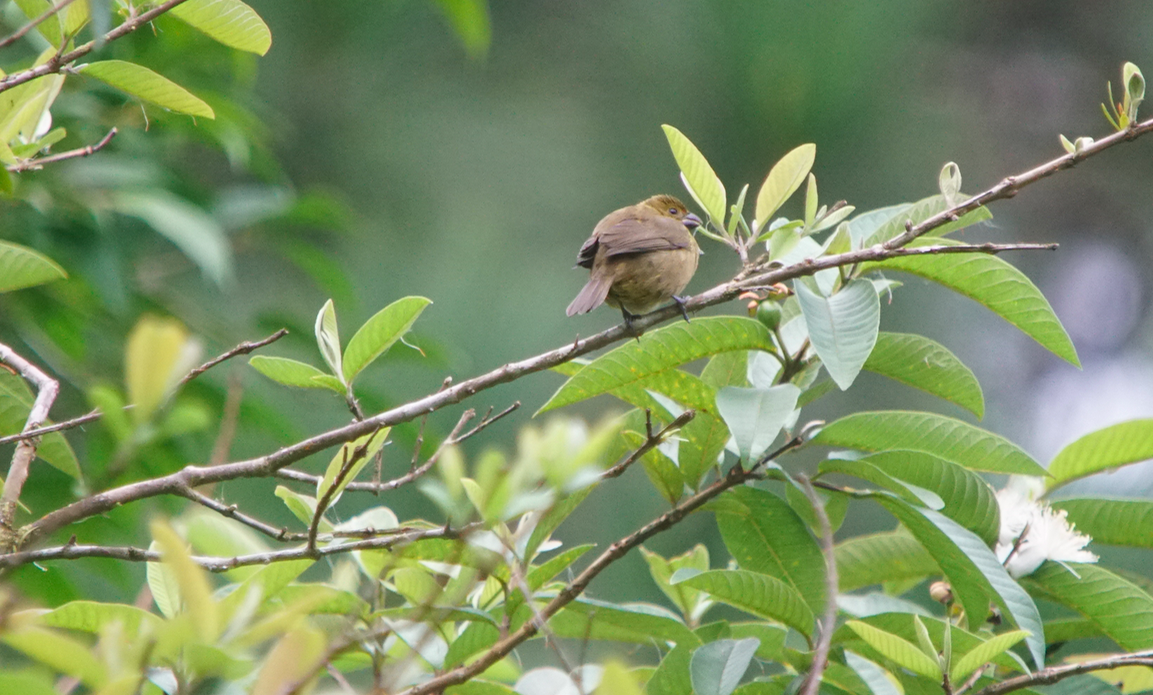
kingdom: Animalia
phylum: Chordata
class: Aves
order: Passeriformes
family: Thraupidae
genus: Sporophila
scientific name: Sporophila corvina
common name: Variable seedeater
